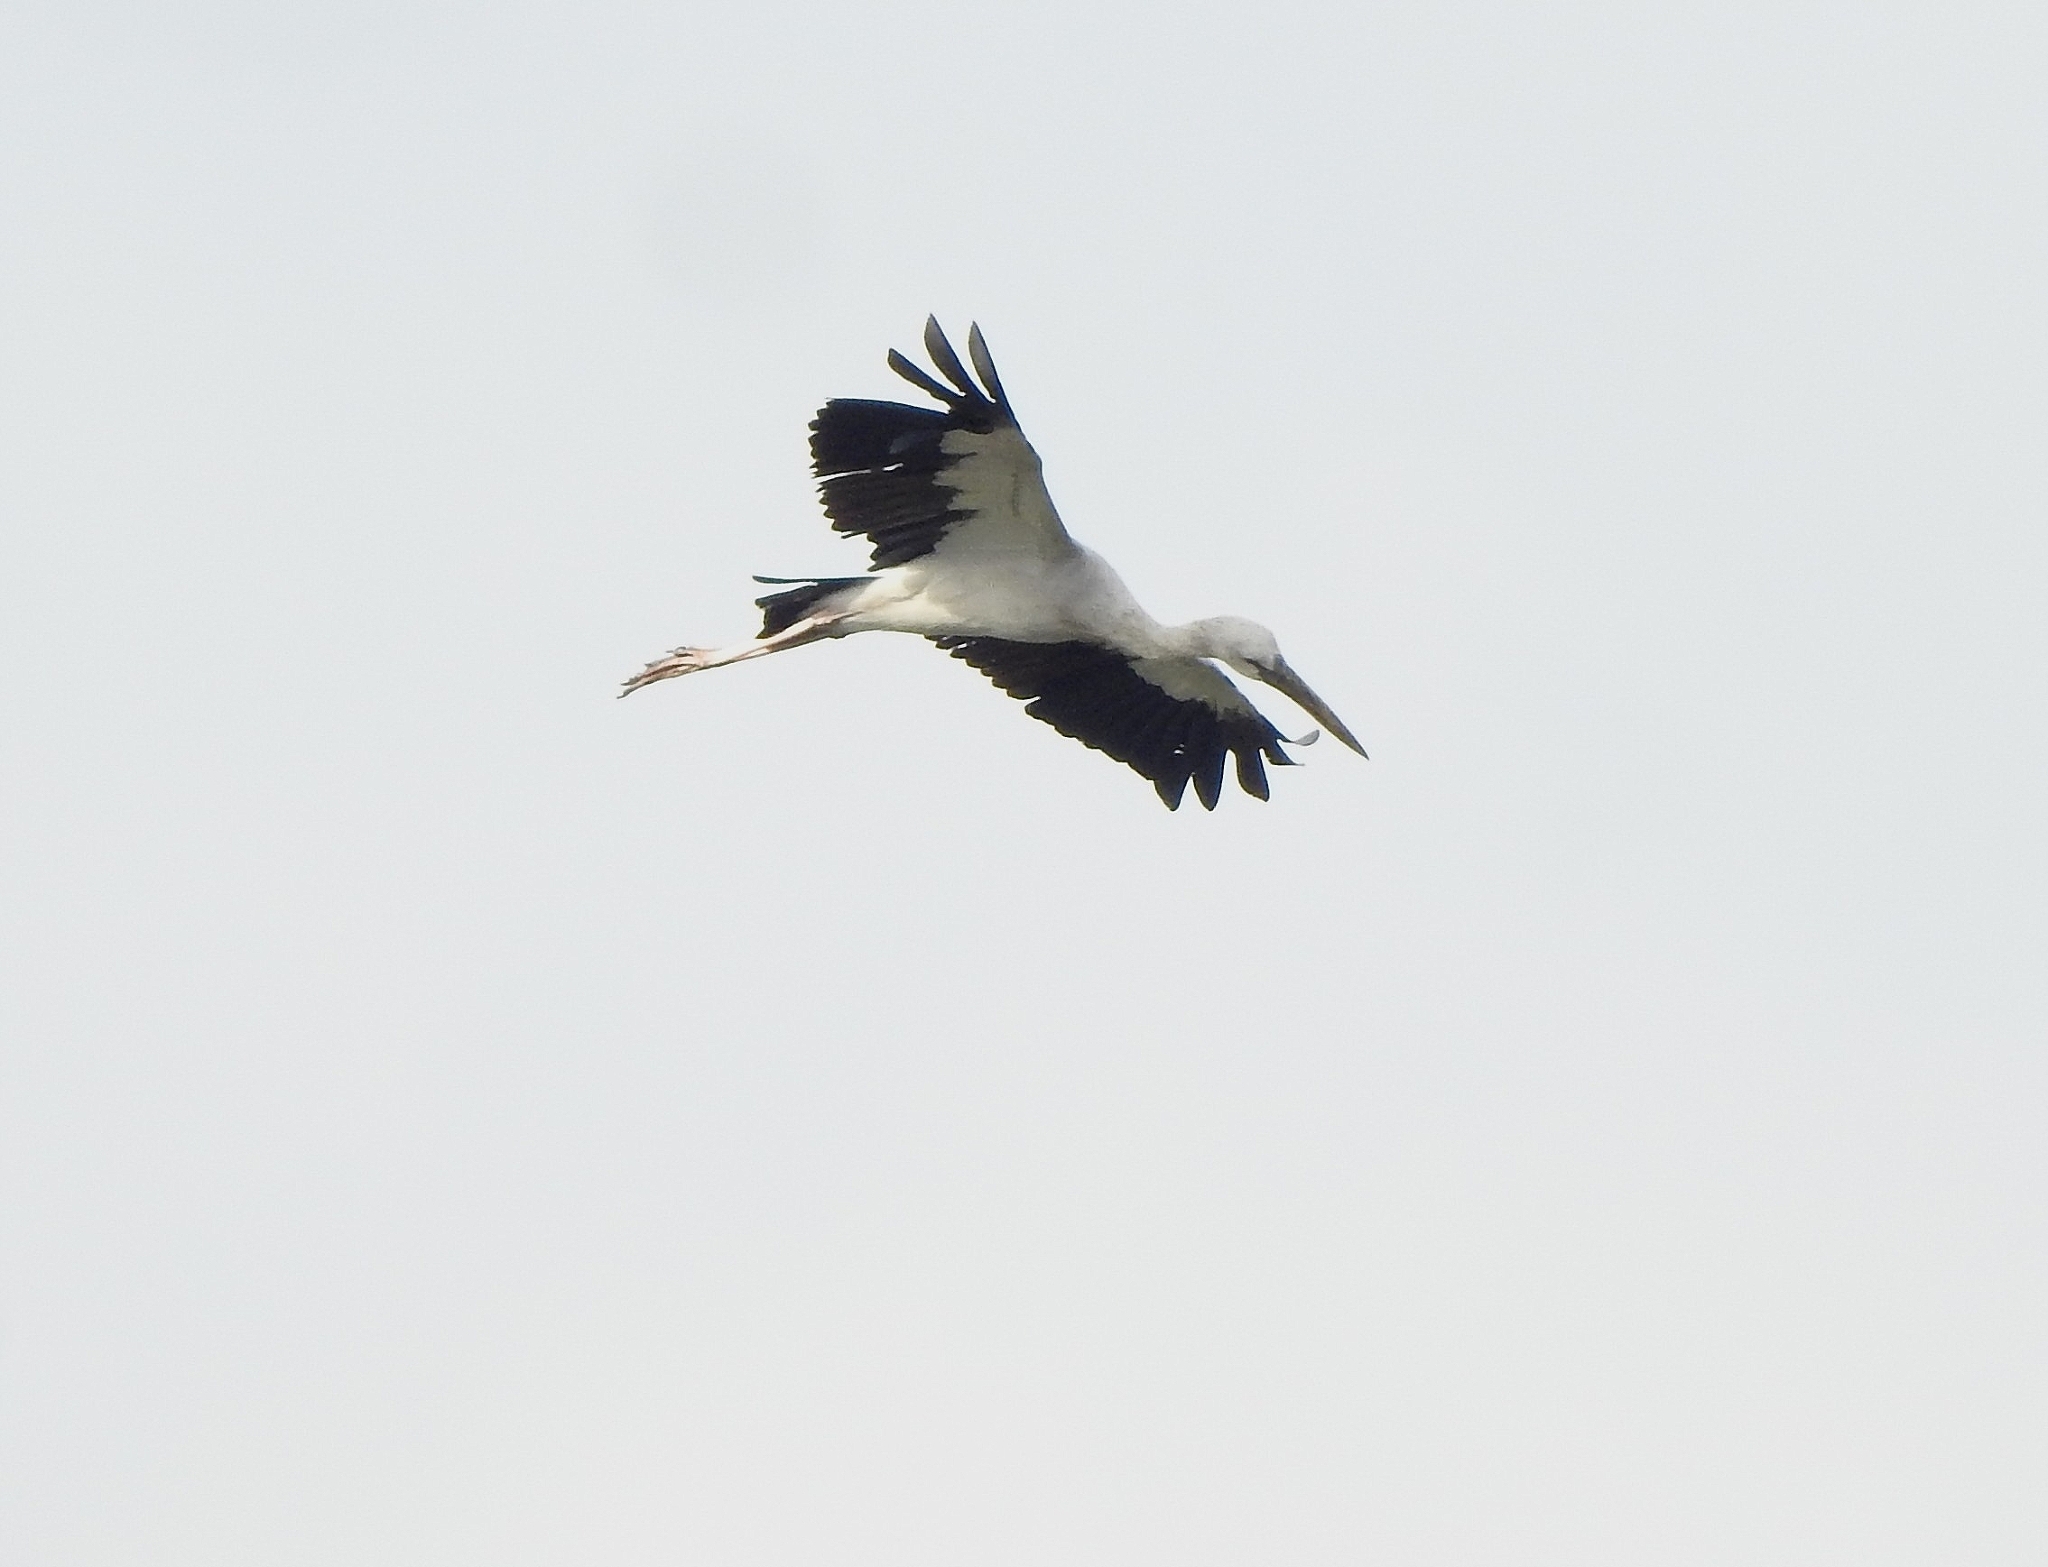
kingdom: Animalia
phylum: Chordata
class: Aves
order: Ciconiiformes
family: Ciconiidae
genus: Anastomus
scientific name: Anastomus oscitans
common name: Asian openbill
